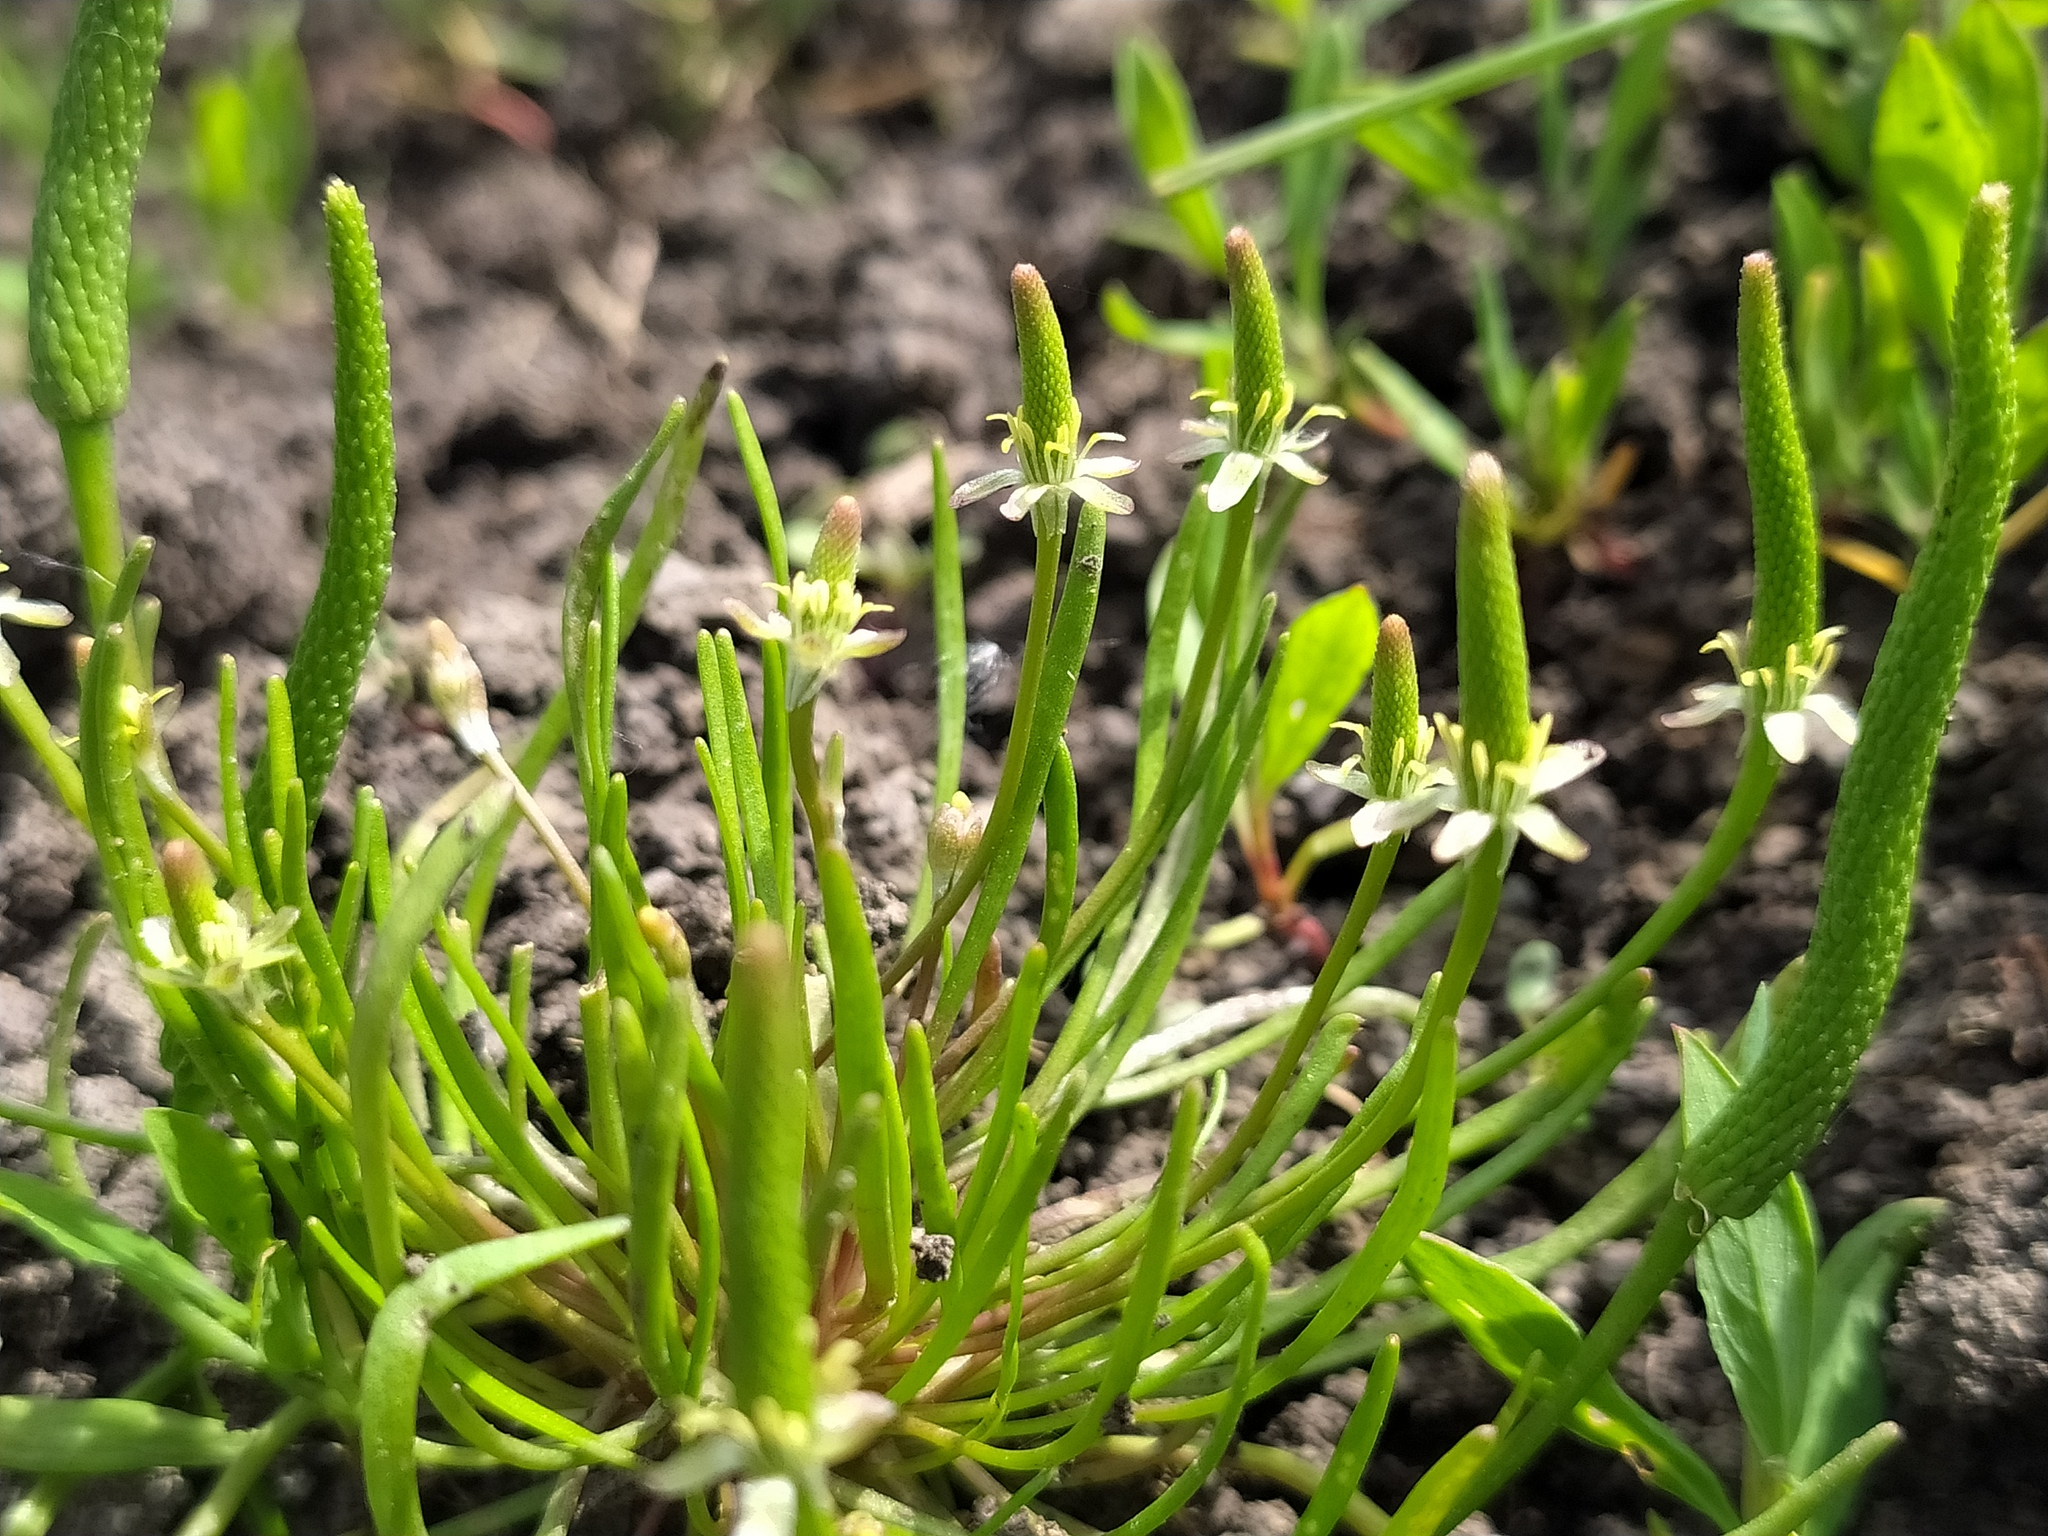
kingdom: Plantae
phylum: Tracheophyta
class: Magnoliopsida
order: Ranunculales
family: Ranunculaceae
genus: Myosurus
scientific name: Myosurus minimus
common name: Mousetail
